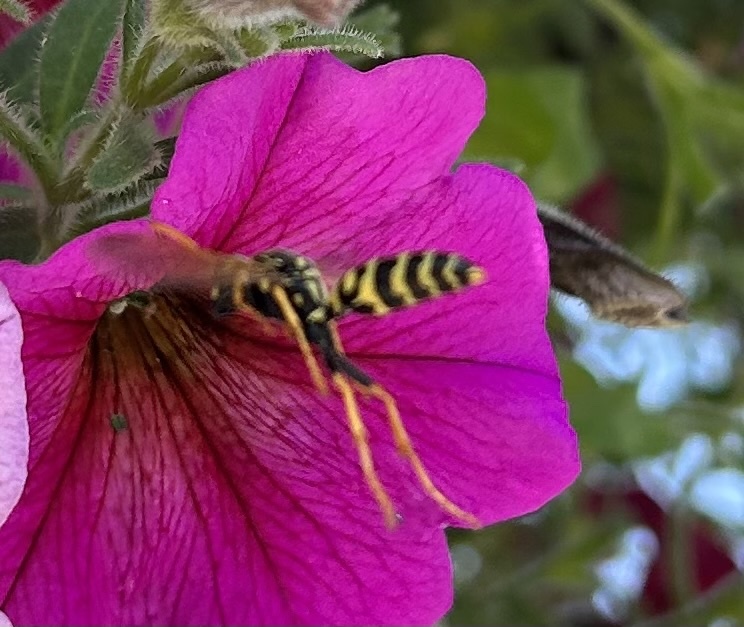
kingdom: Animalia
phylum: Arthropoda
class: Insecta
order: Hymenoptera
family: Eumenidae
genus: Polistes
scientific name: Polistes dominula
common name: Paper wasp
